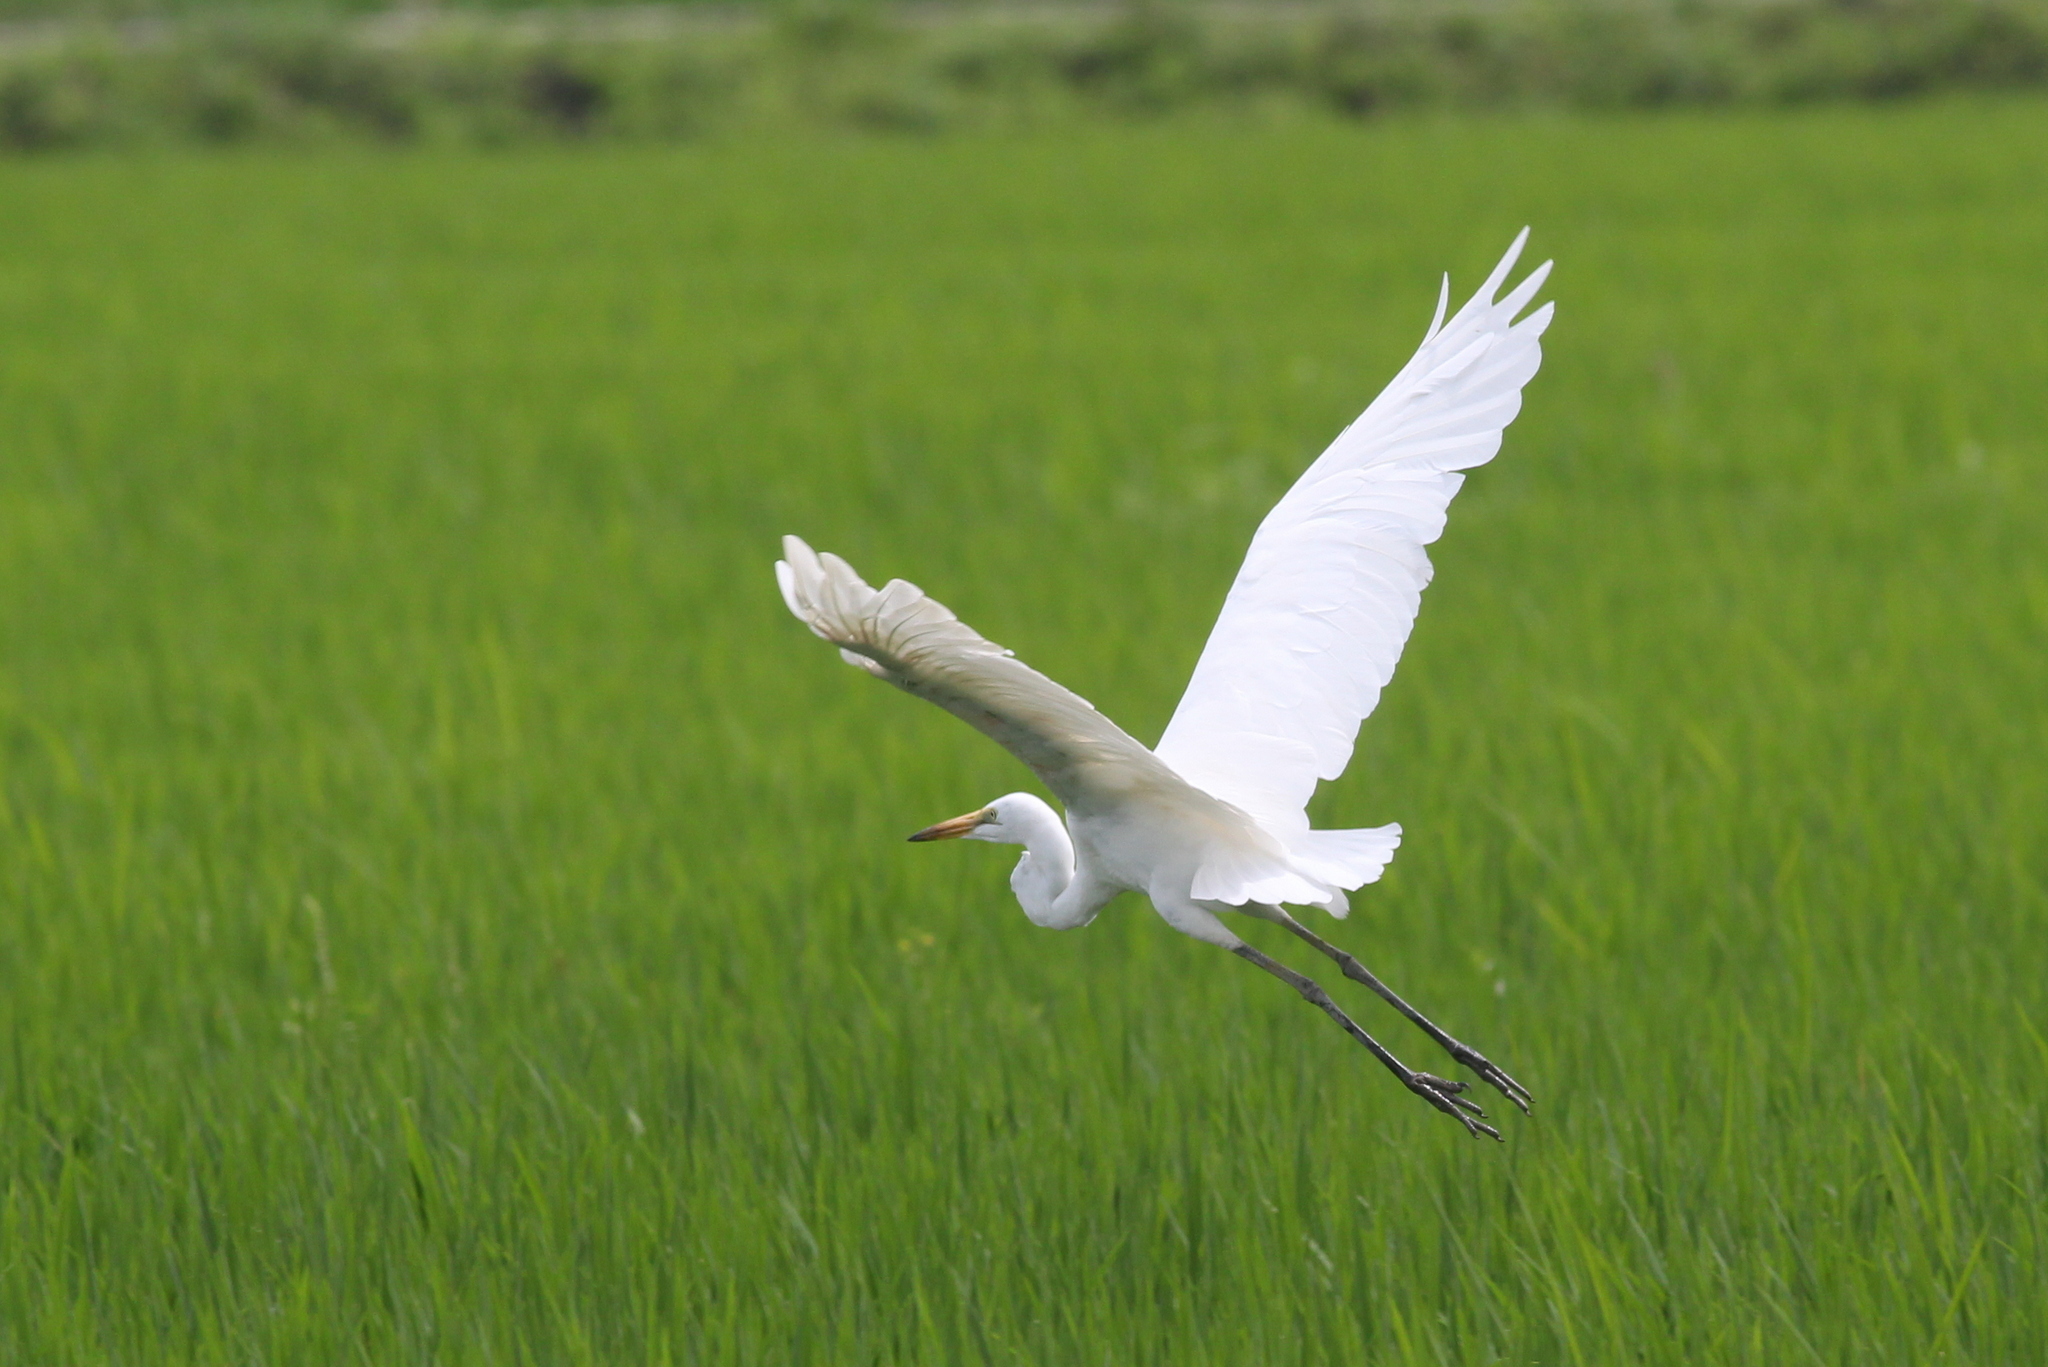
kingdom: Animalia
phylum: Chordata
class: Aves
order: Pelecaniformes
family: Ardeidae
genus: Ardea
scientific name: Ardea alba
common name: Great egret
